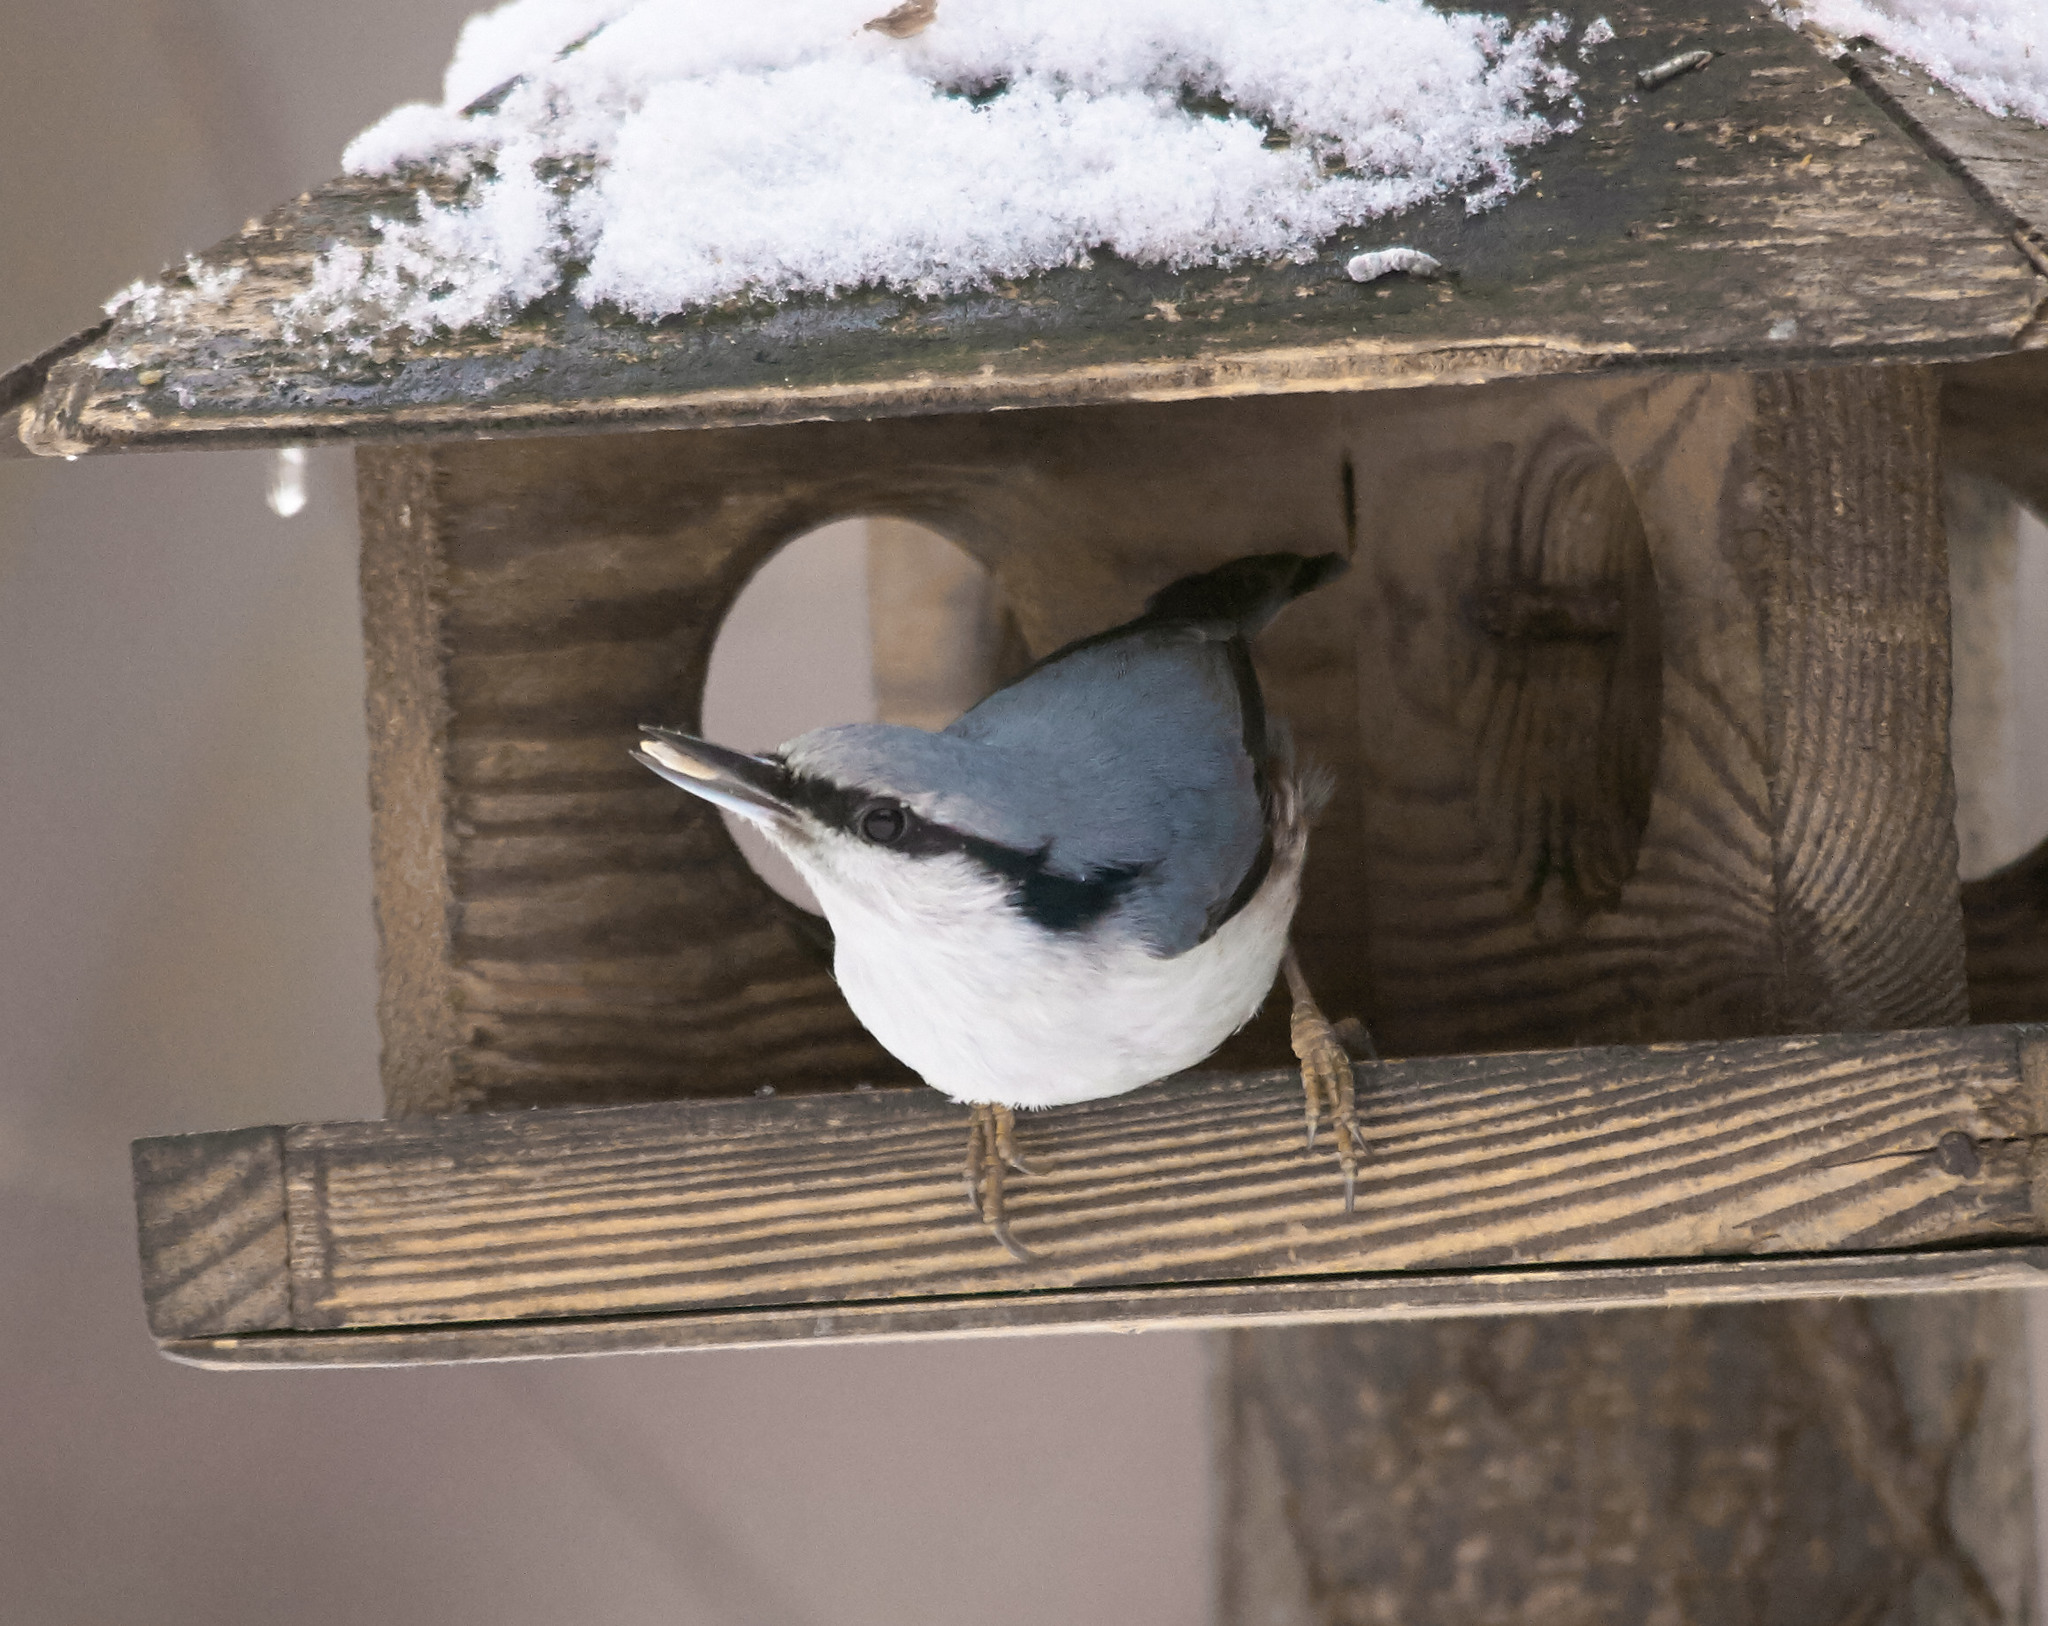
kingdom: Animalia
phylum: Chordata
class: Aves
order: Passeriformes
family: Sittidae
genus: Sitta
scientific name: Sitta europaea
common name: Eurasian nuthatch
